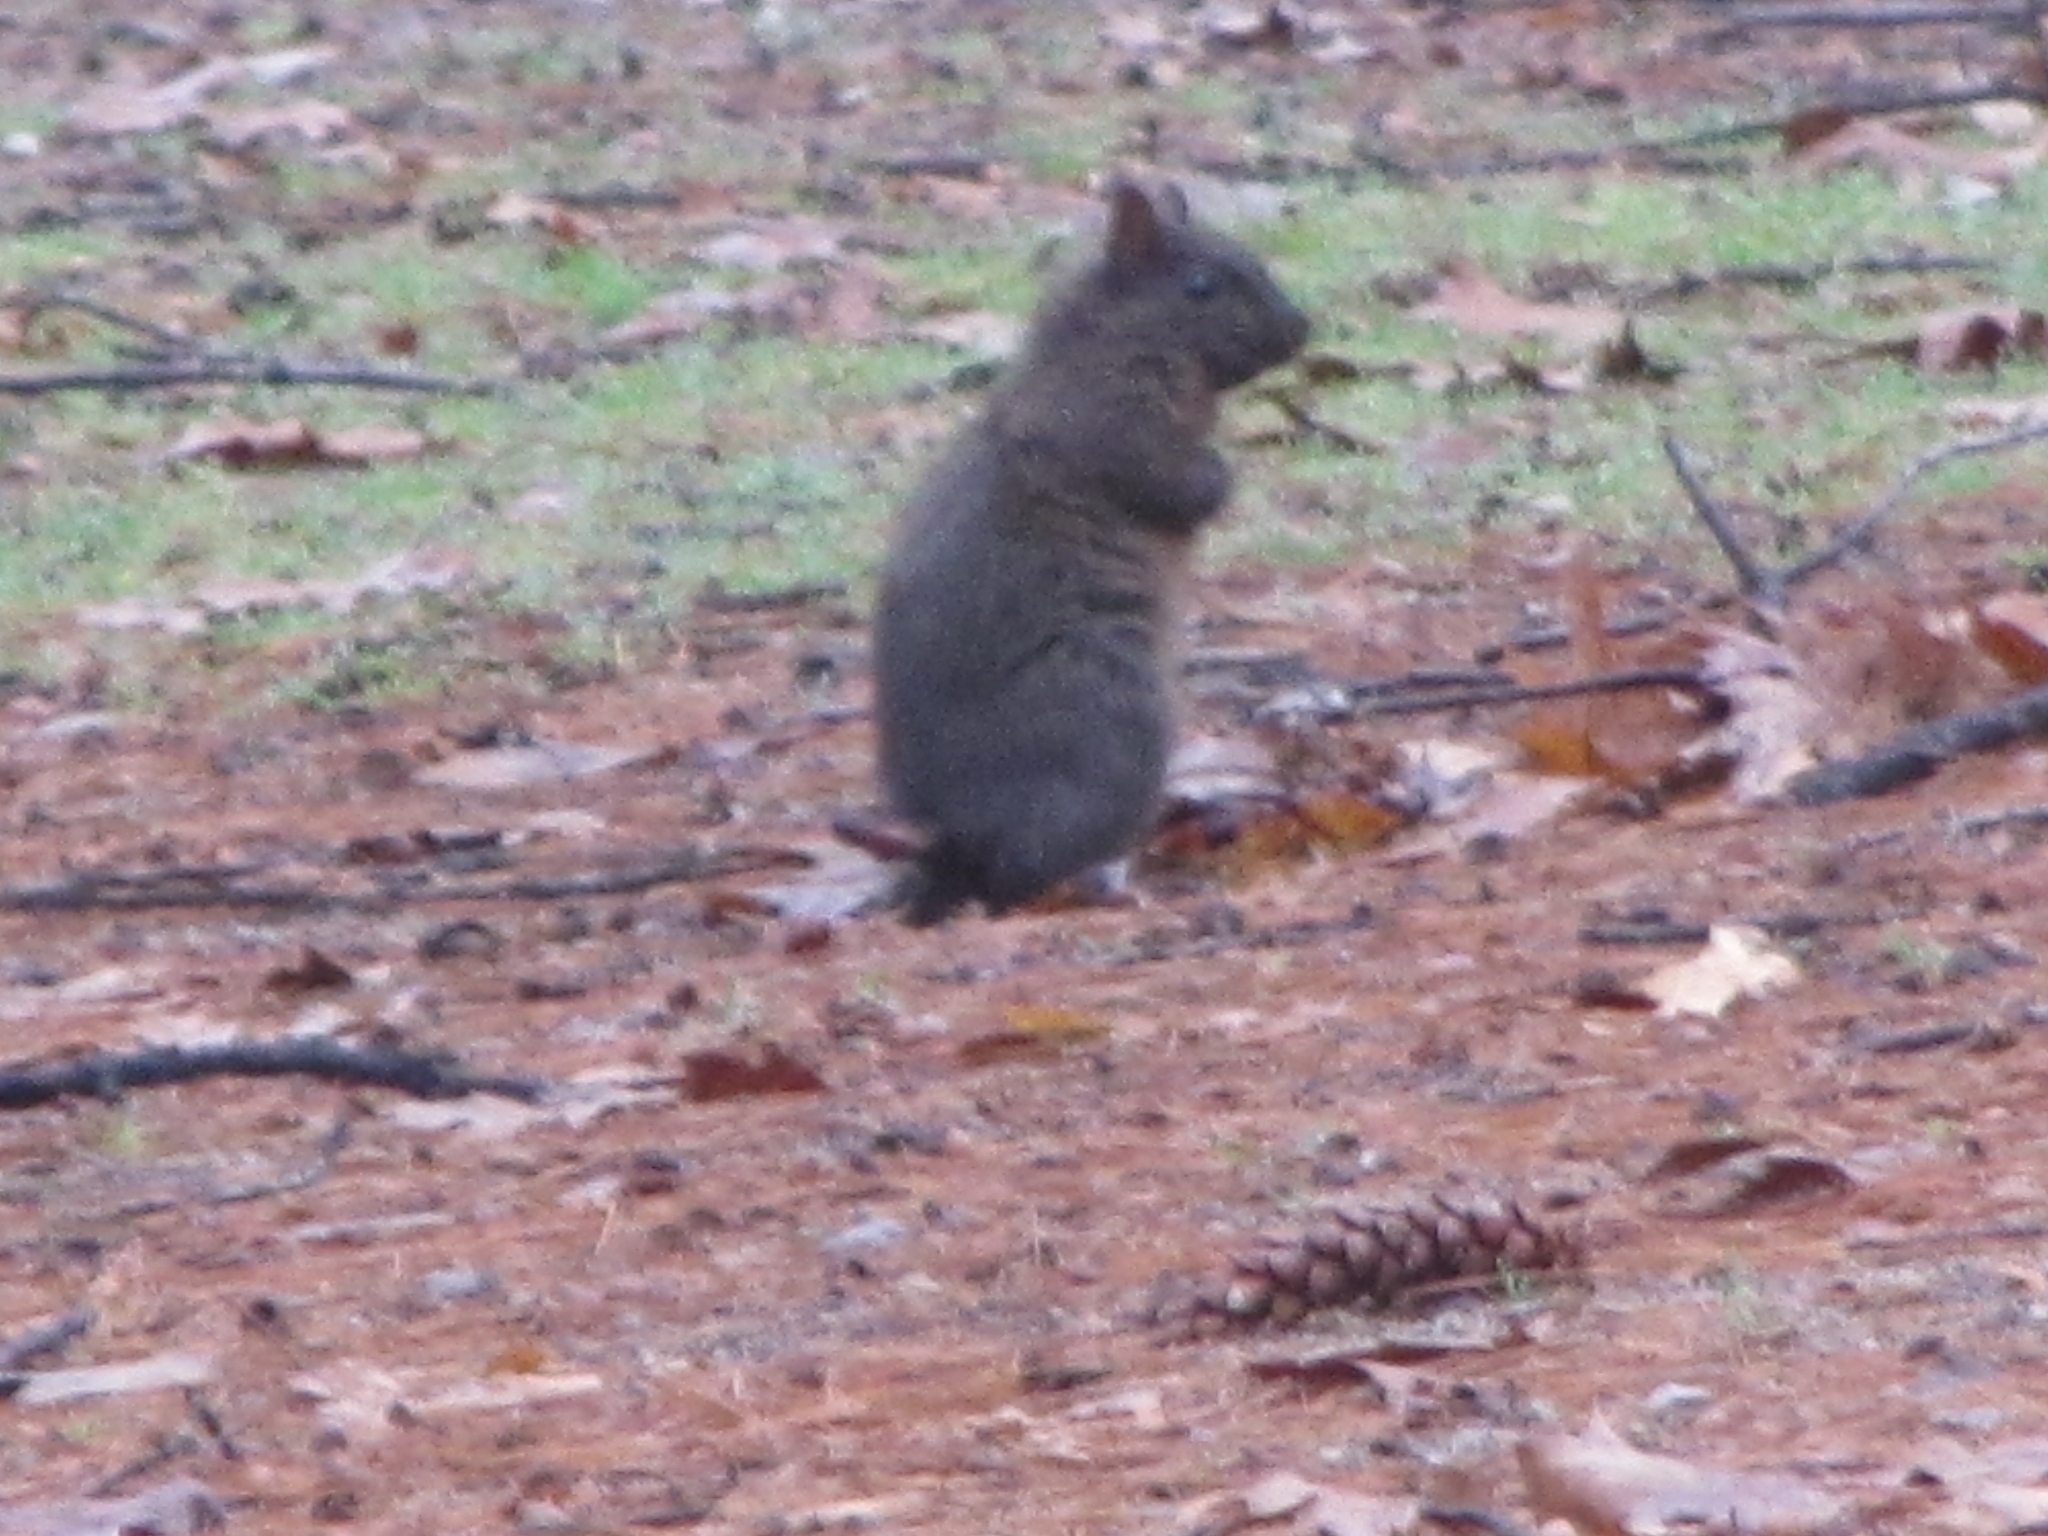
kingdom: Animalia
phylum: Chordata
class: Mammalia
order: Rodentia
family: Sciuridae
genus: Sciurus
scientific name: Sciurus carolinensis
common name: Eastern gray squirrel
